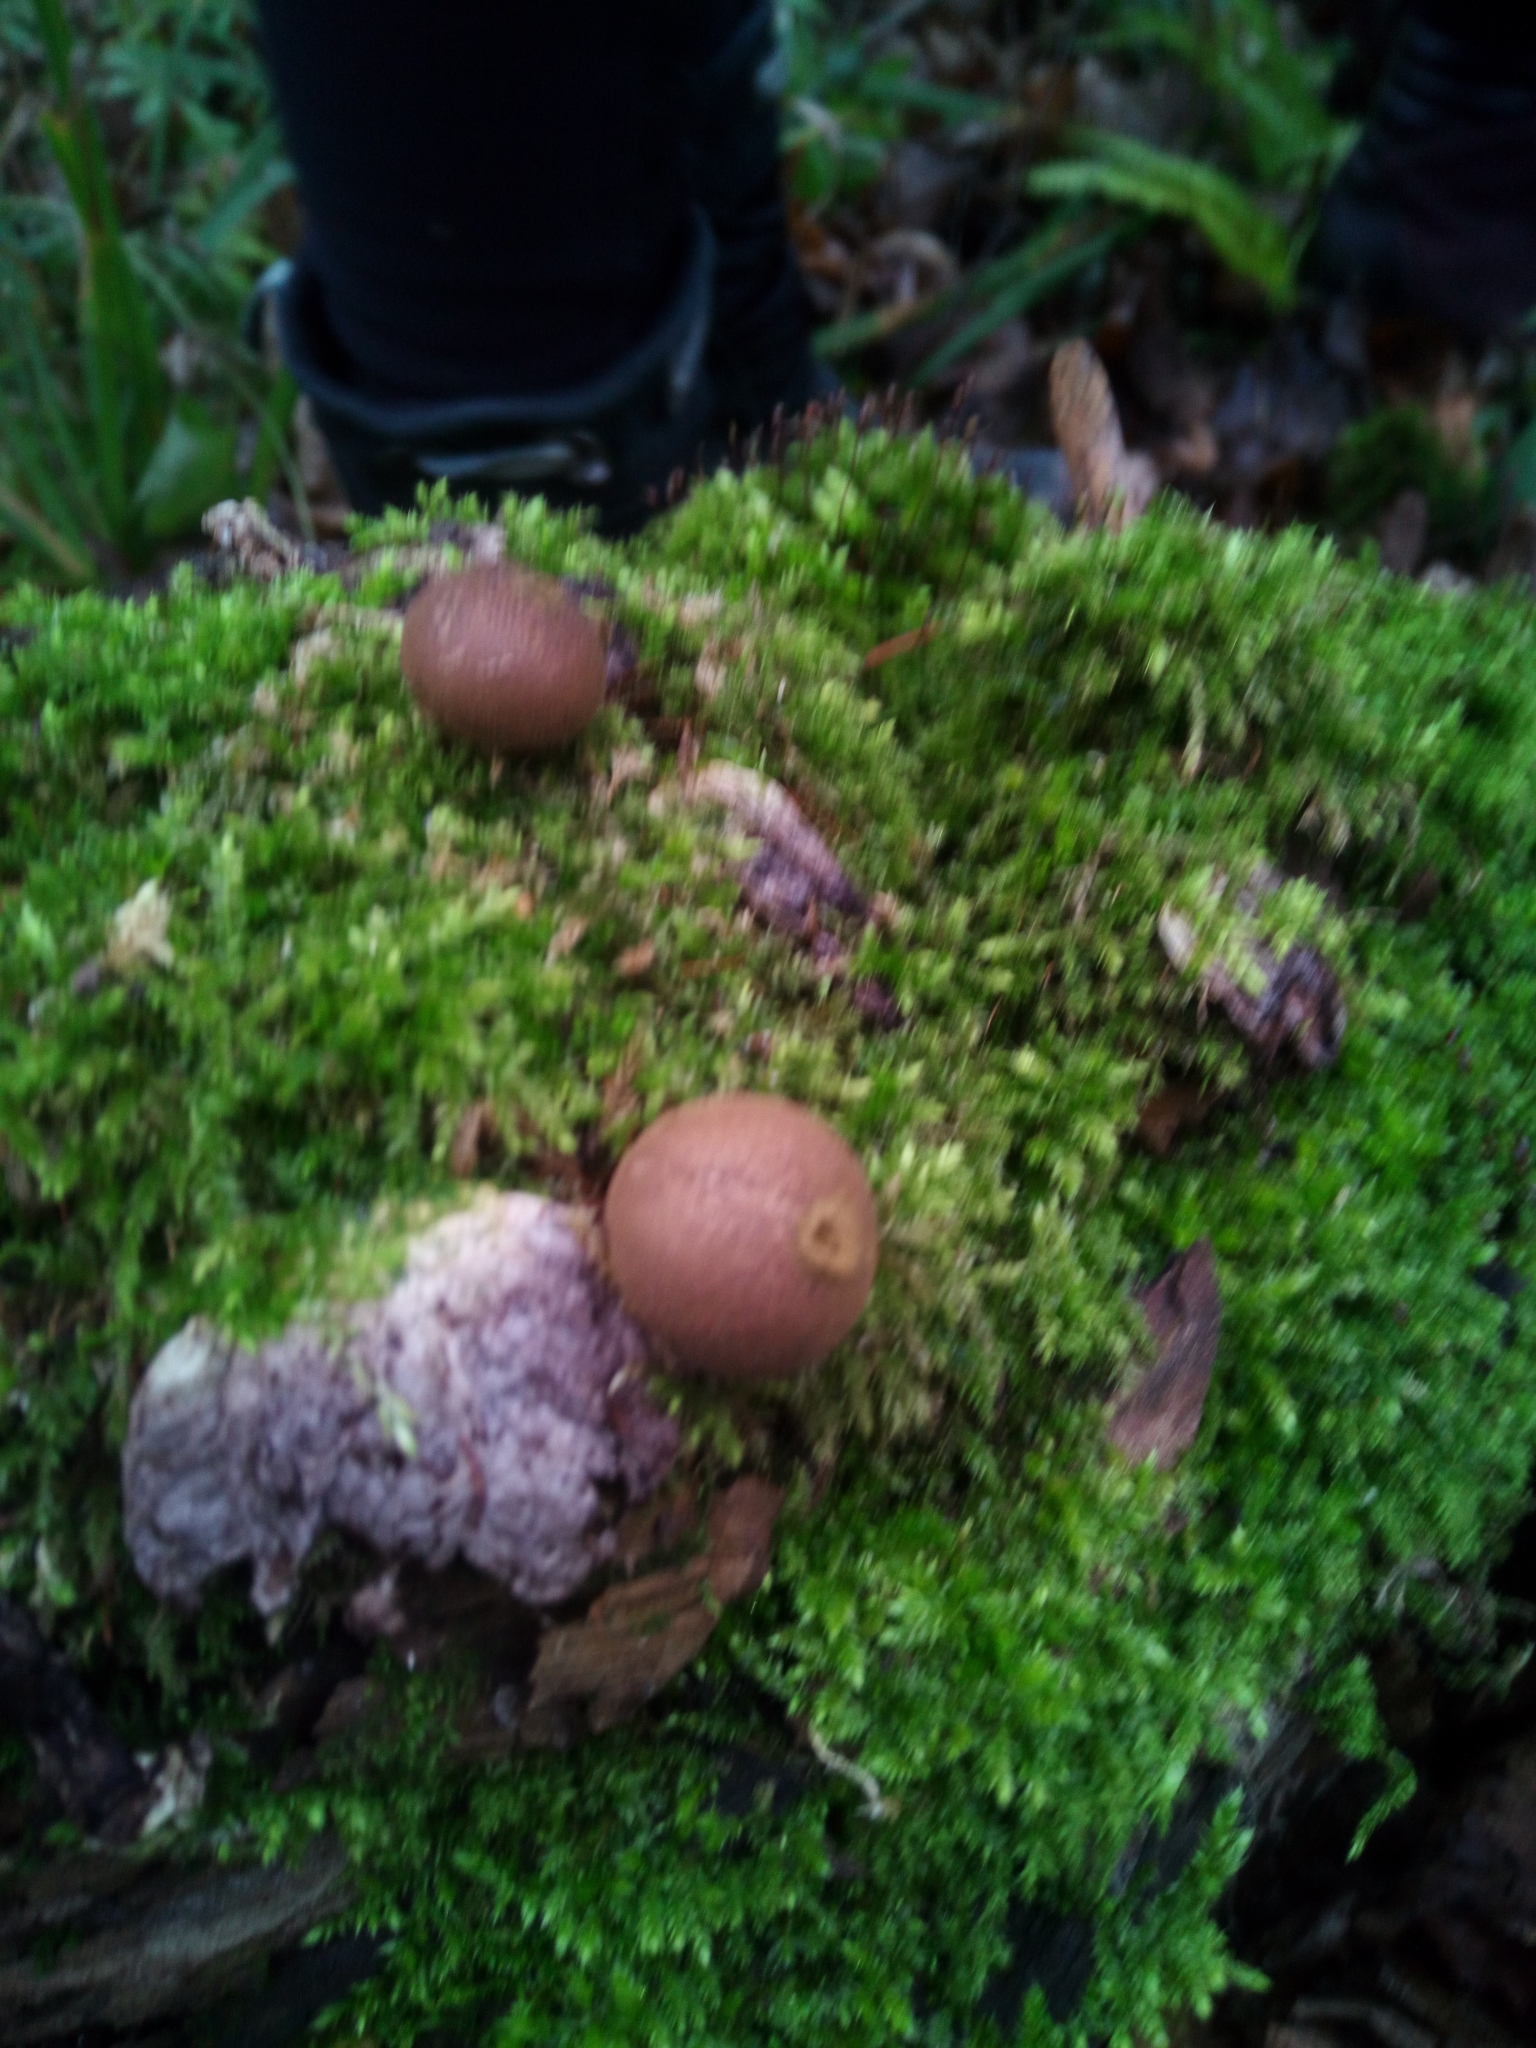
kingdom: Fungi
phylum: Basidiomycota
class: Agaricomycetes
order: Agaricales
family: Lycoperdaceae
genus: Apioperdon
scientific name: Apioperdon pyriforme
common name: Pear-shaped puffball
